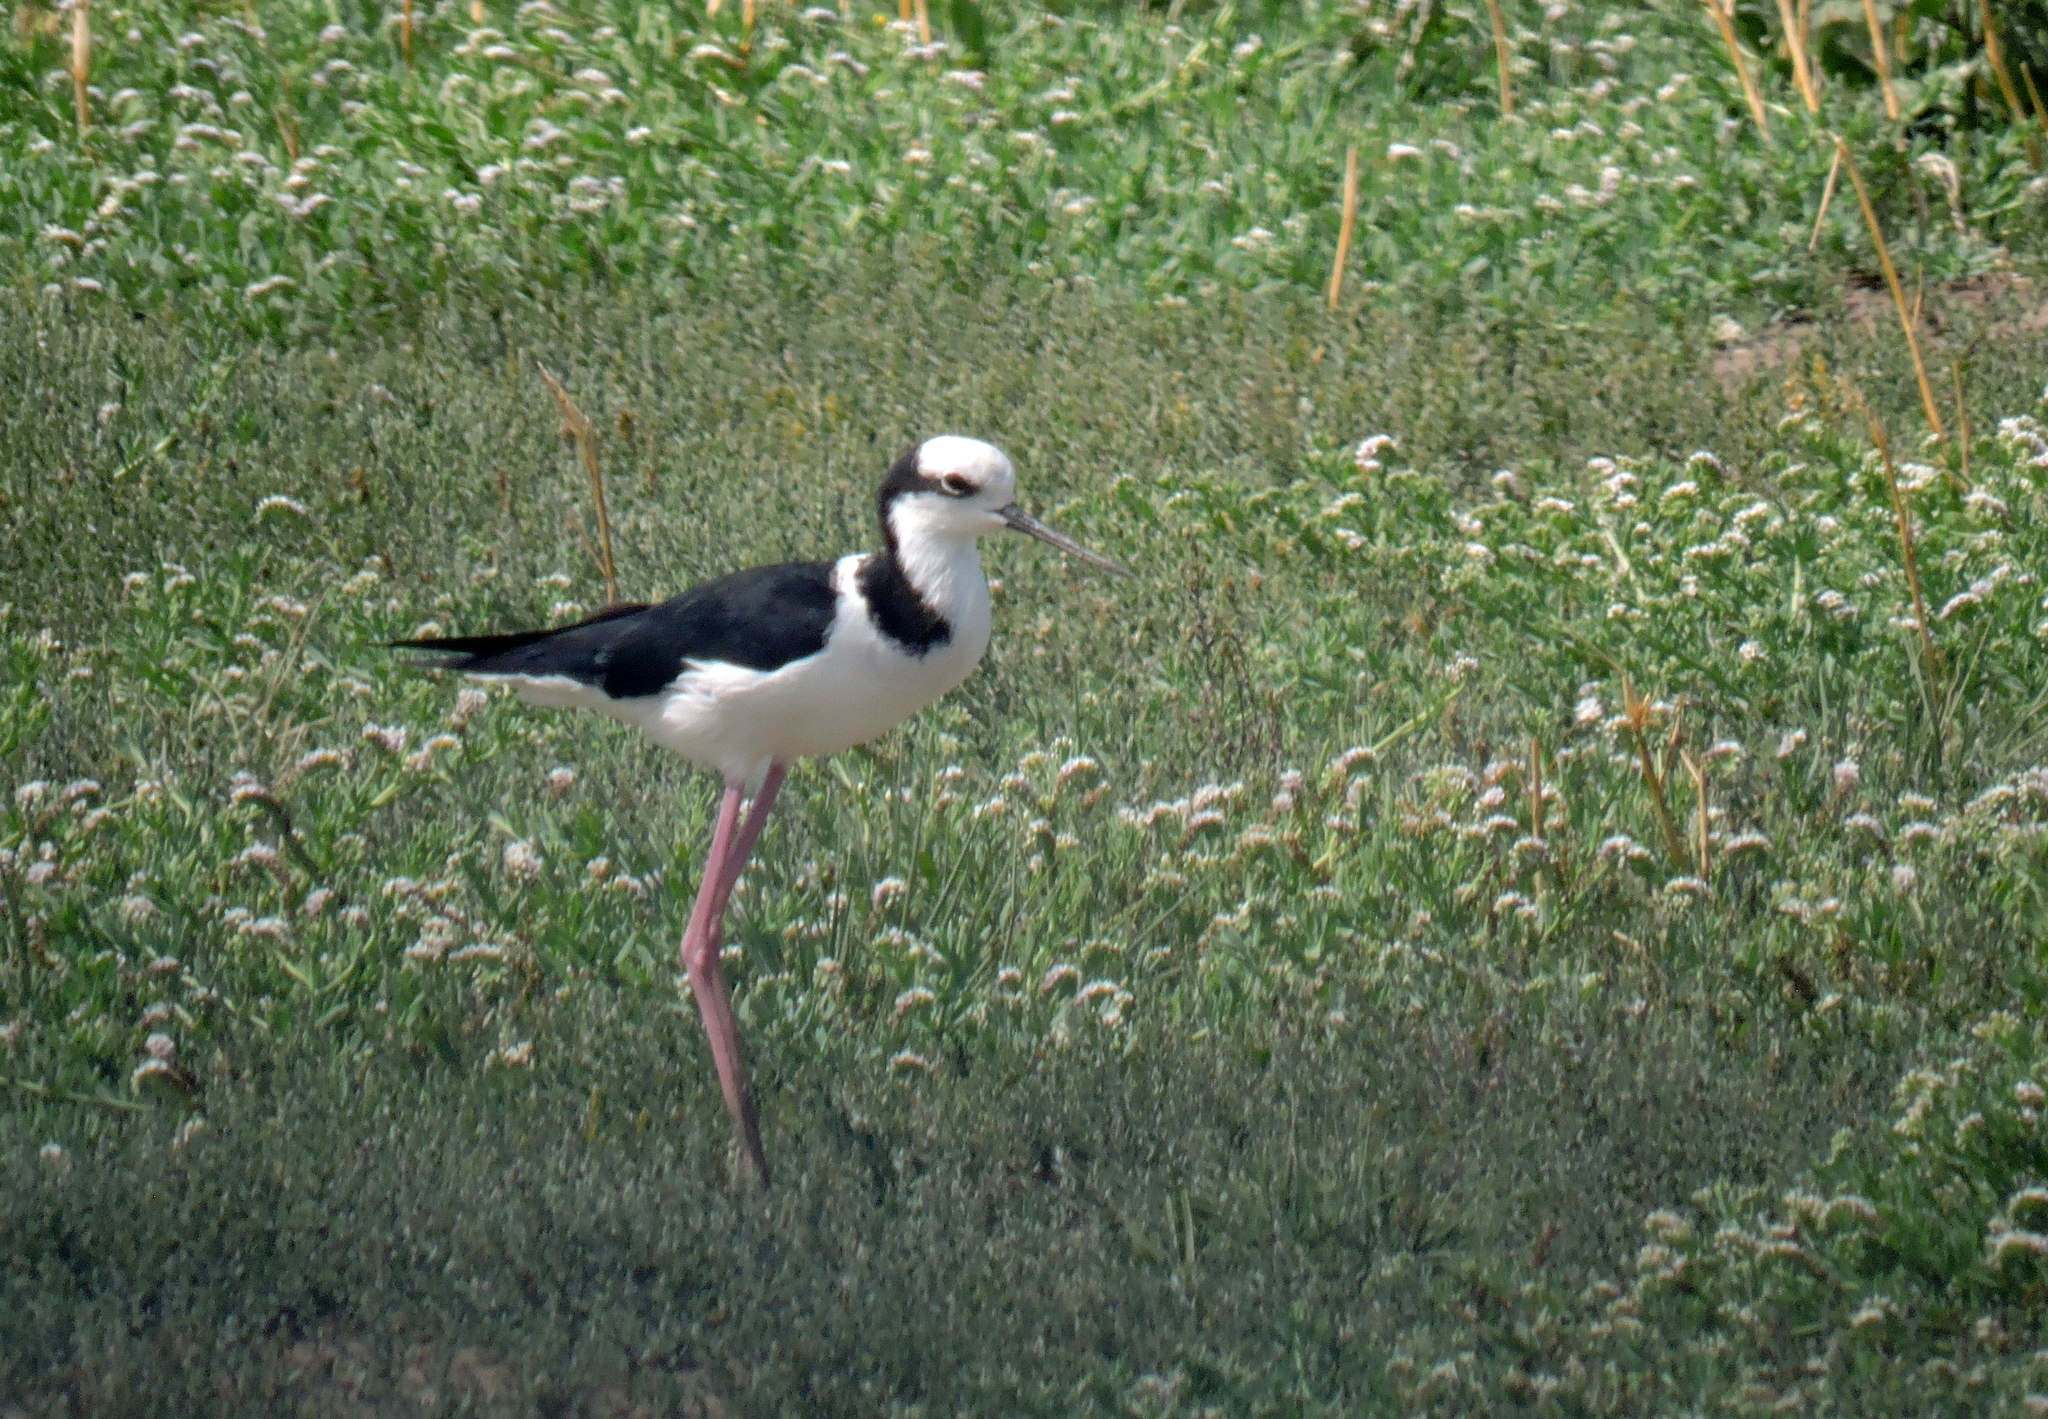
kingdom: Animalia
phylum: Chordata
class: Aves
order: Charadriiformes
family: Recurvirostridae
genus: Himantopus
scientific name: Himantopus mexicanus
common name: Black-necked stilt
